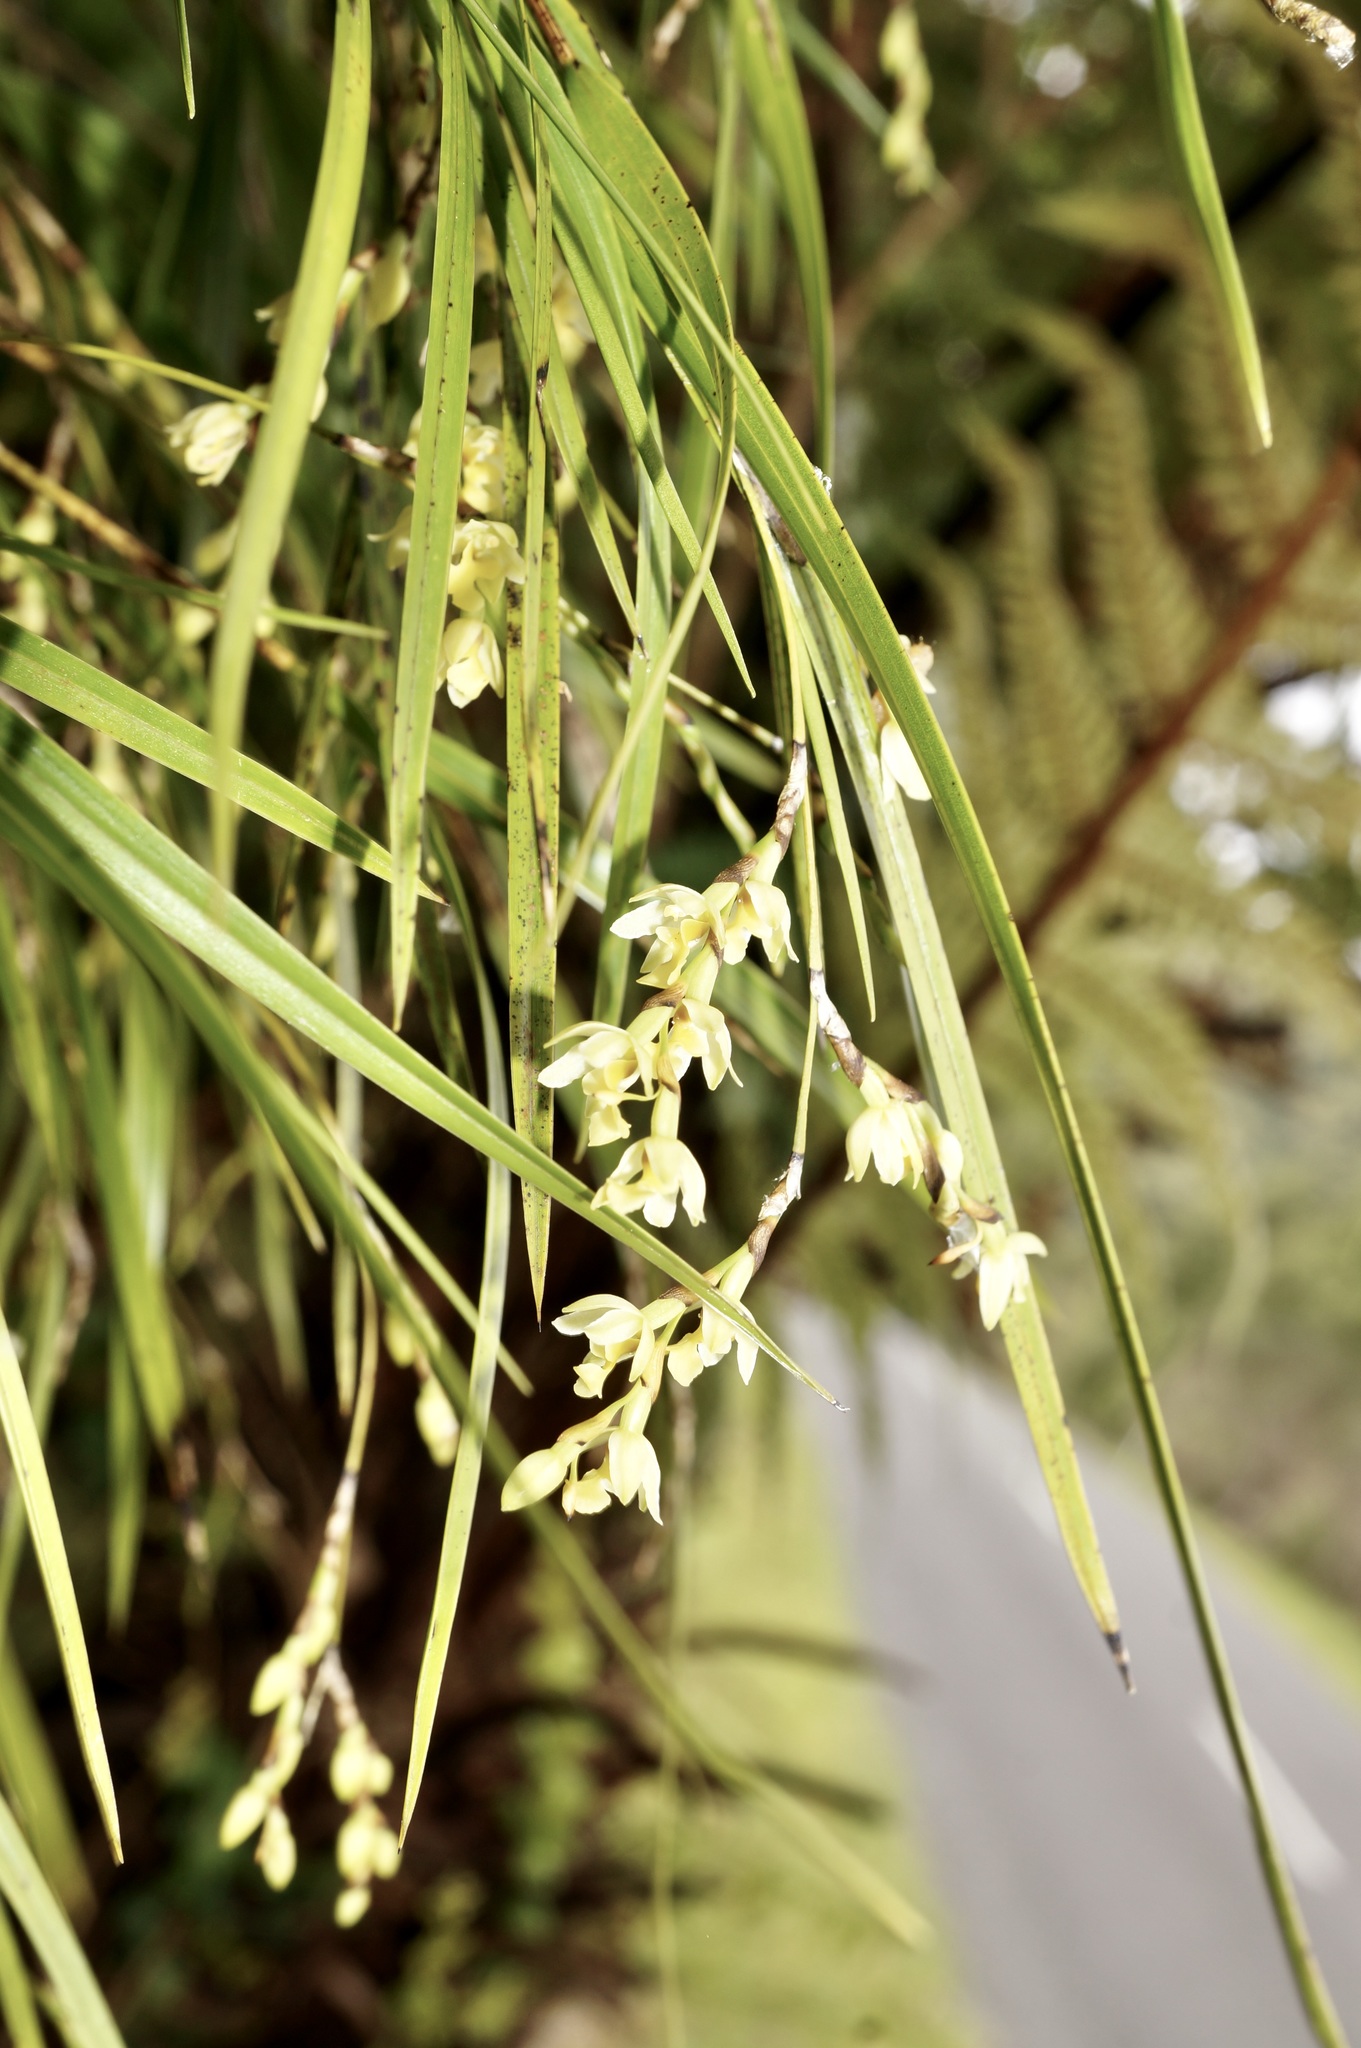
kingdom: Plantae
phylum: Tracheophyta
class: Liliopsida
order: Asparagales
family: Orchidaceae
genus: Earina
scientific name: Earina mucronata
